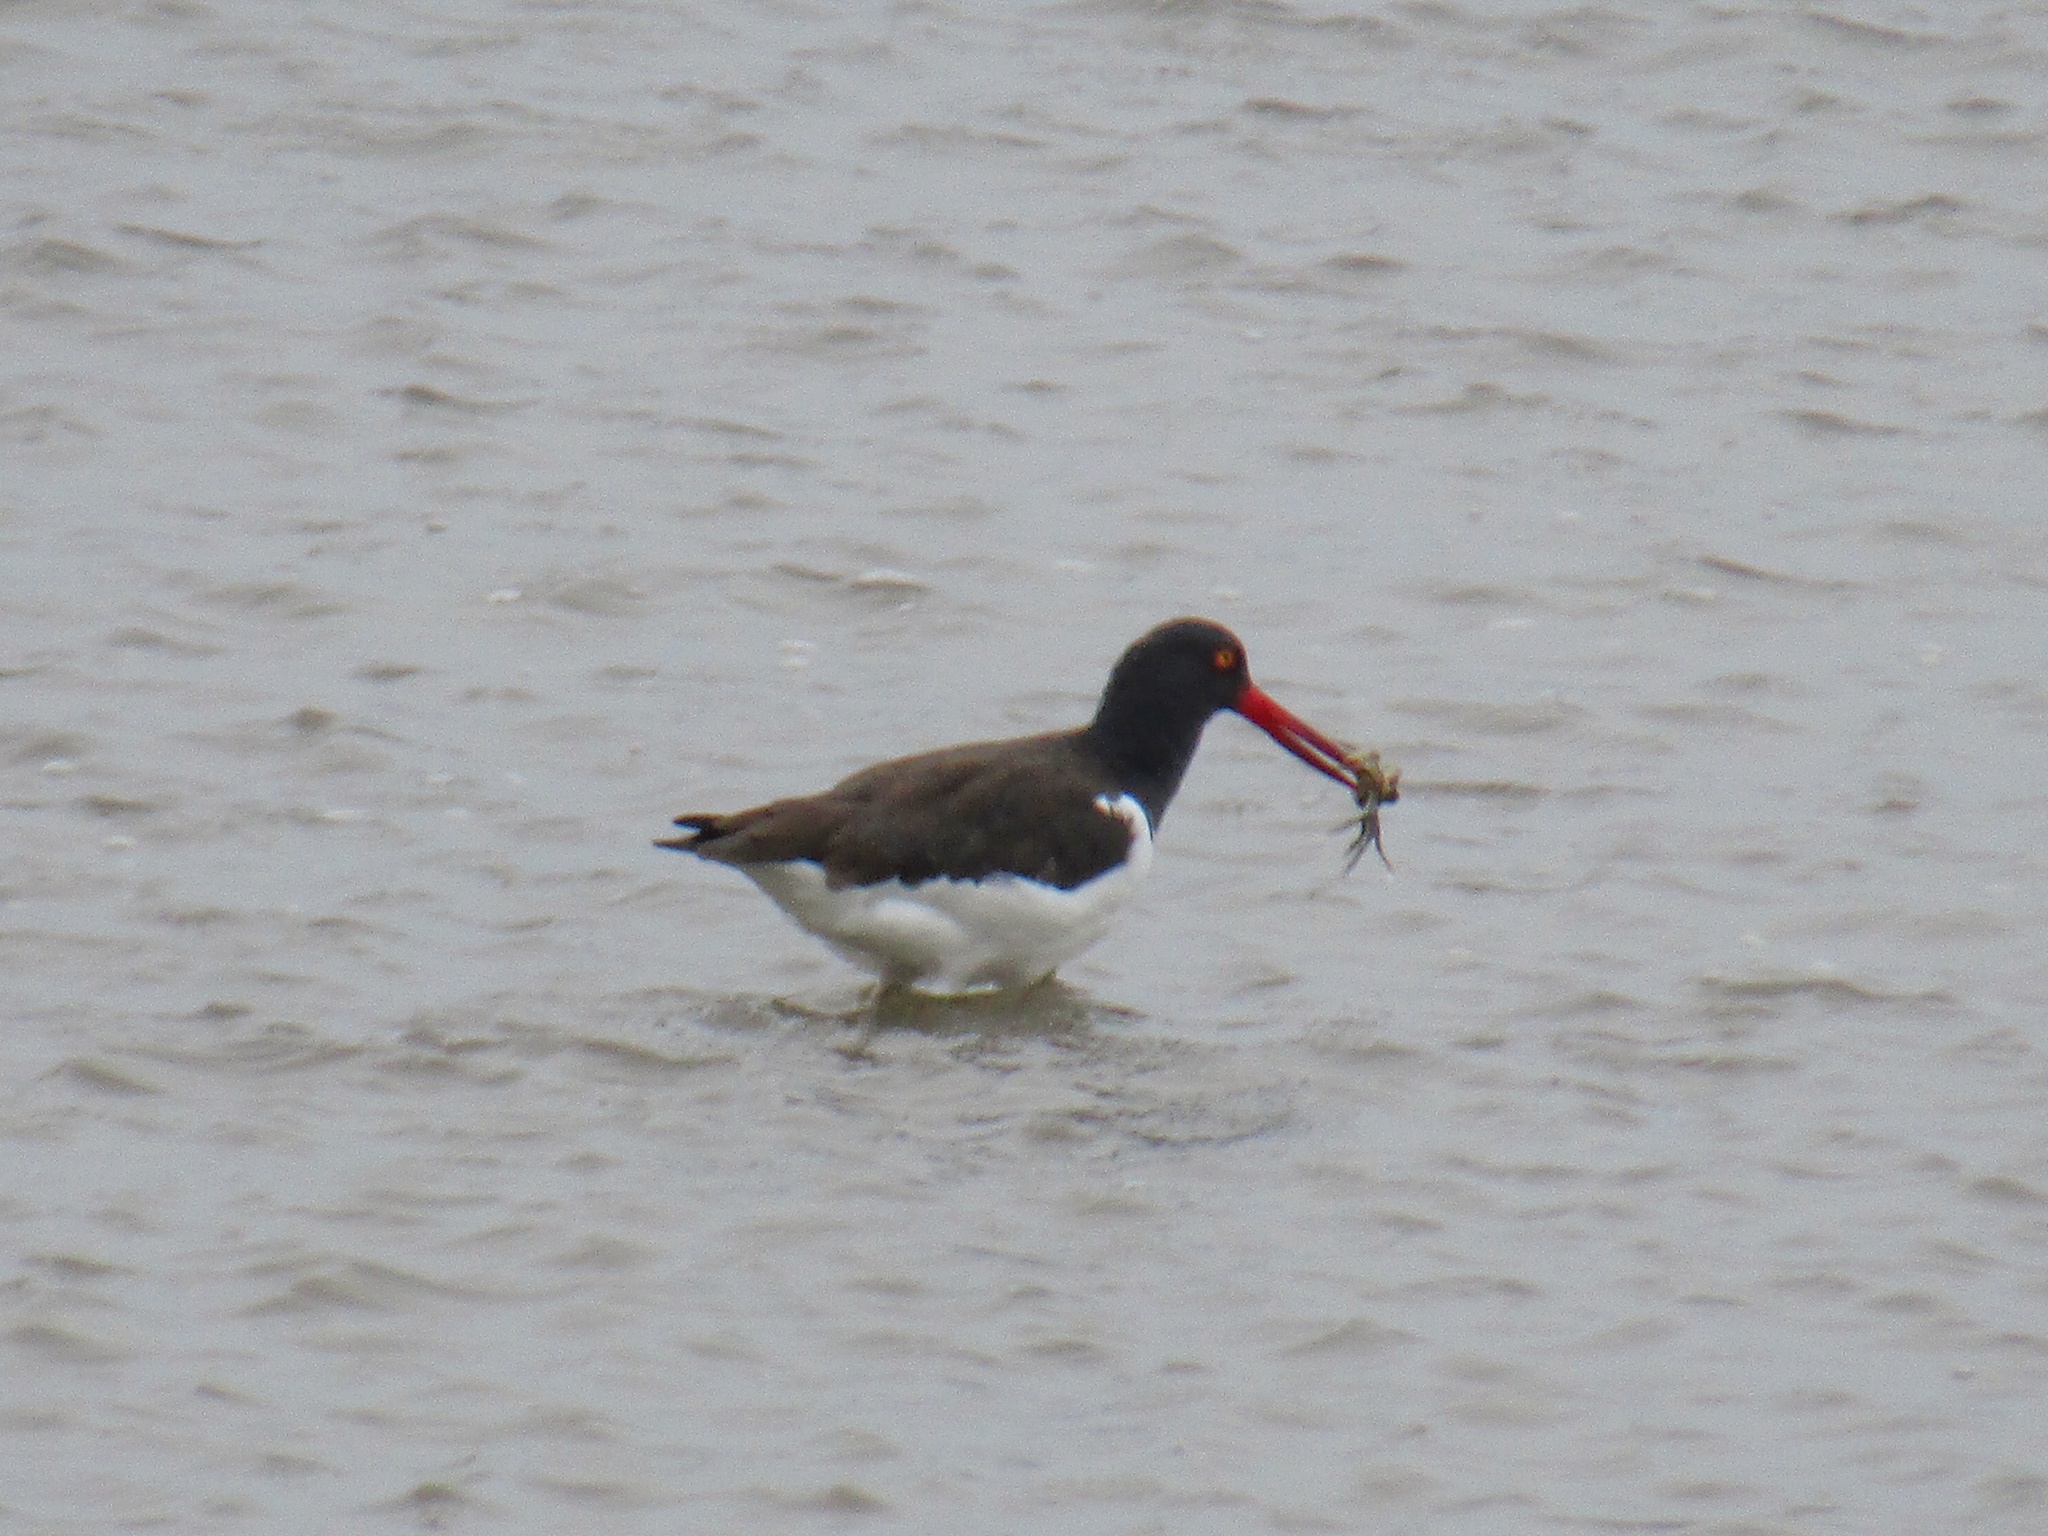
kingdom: Animalia
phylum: Chordata
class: Aves
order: Charadriiformes
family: Haematopodidae
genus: Haematopus
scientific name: Haematopus palliatus
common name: American oystercatcher
